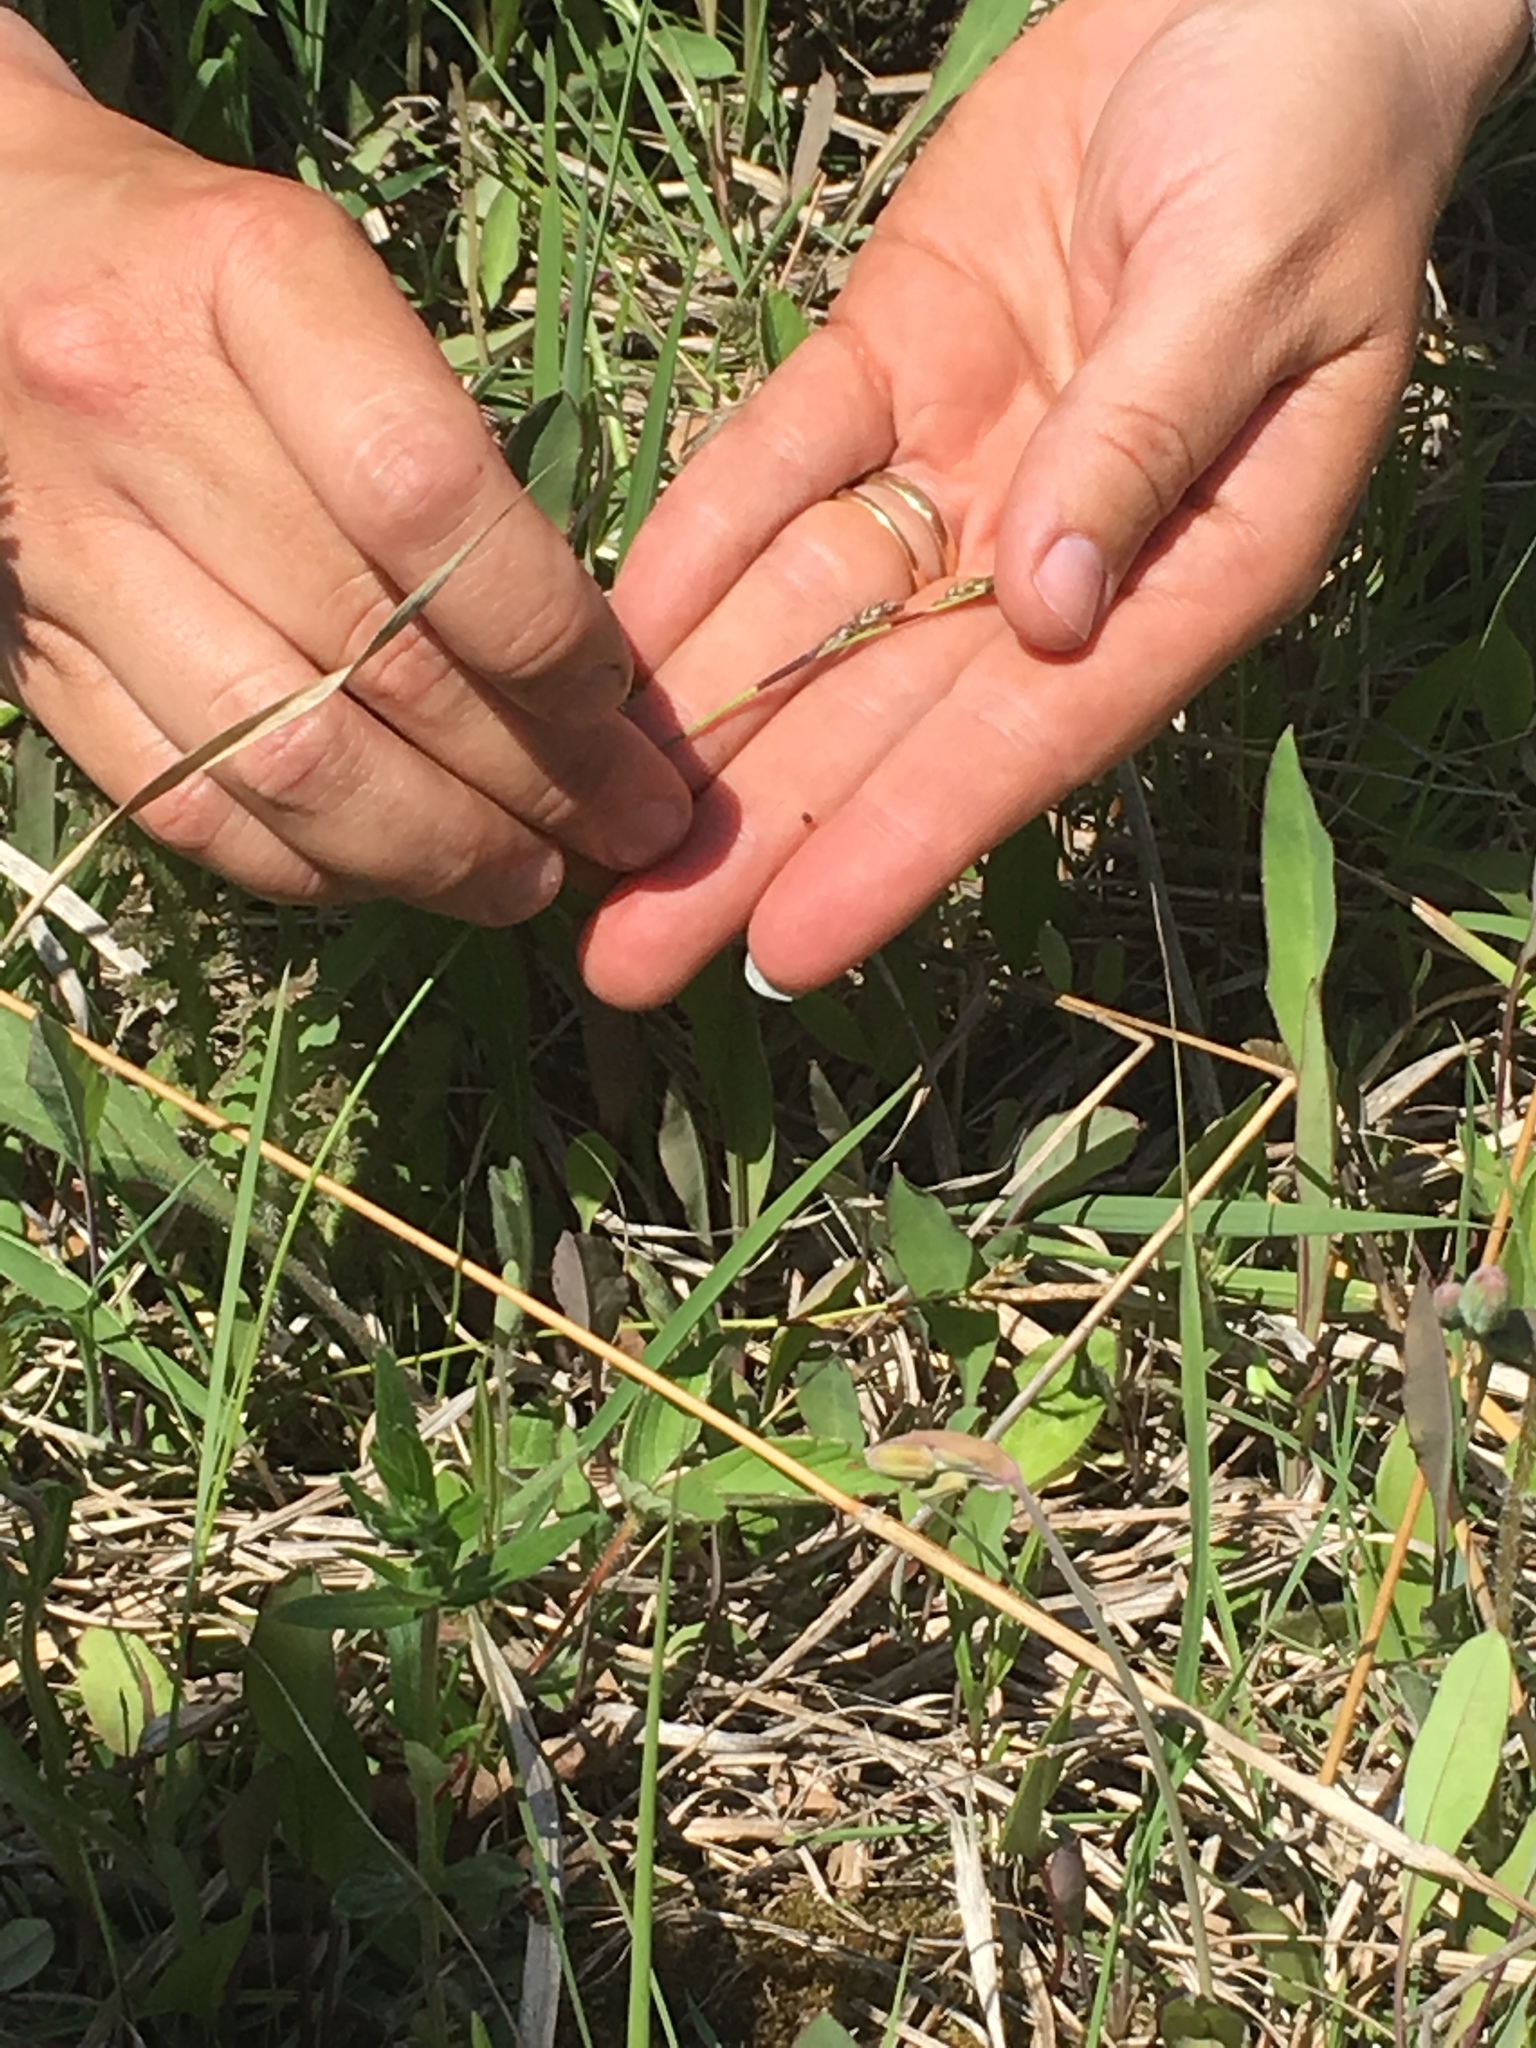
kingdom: Plantae
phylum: Tracheophyta
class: Liliopsida
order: Poales
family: Cyperaceae
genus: Carex
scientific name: Carex richardsonii
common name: Prairie hummock sedge
